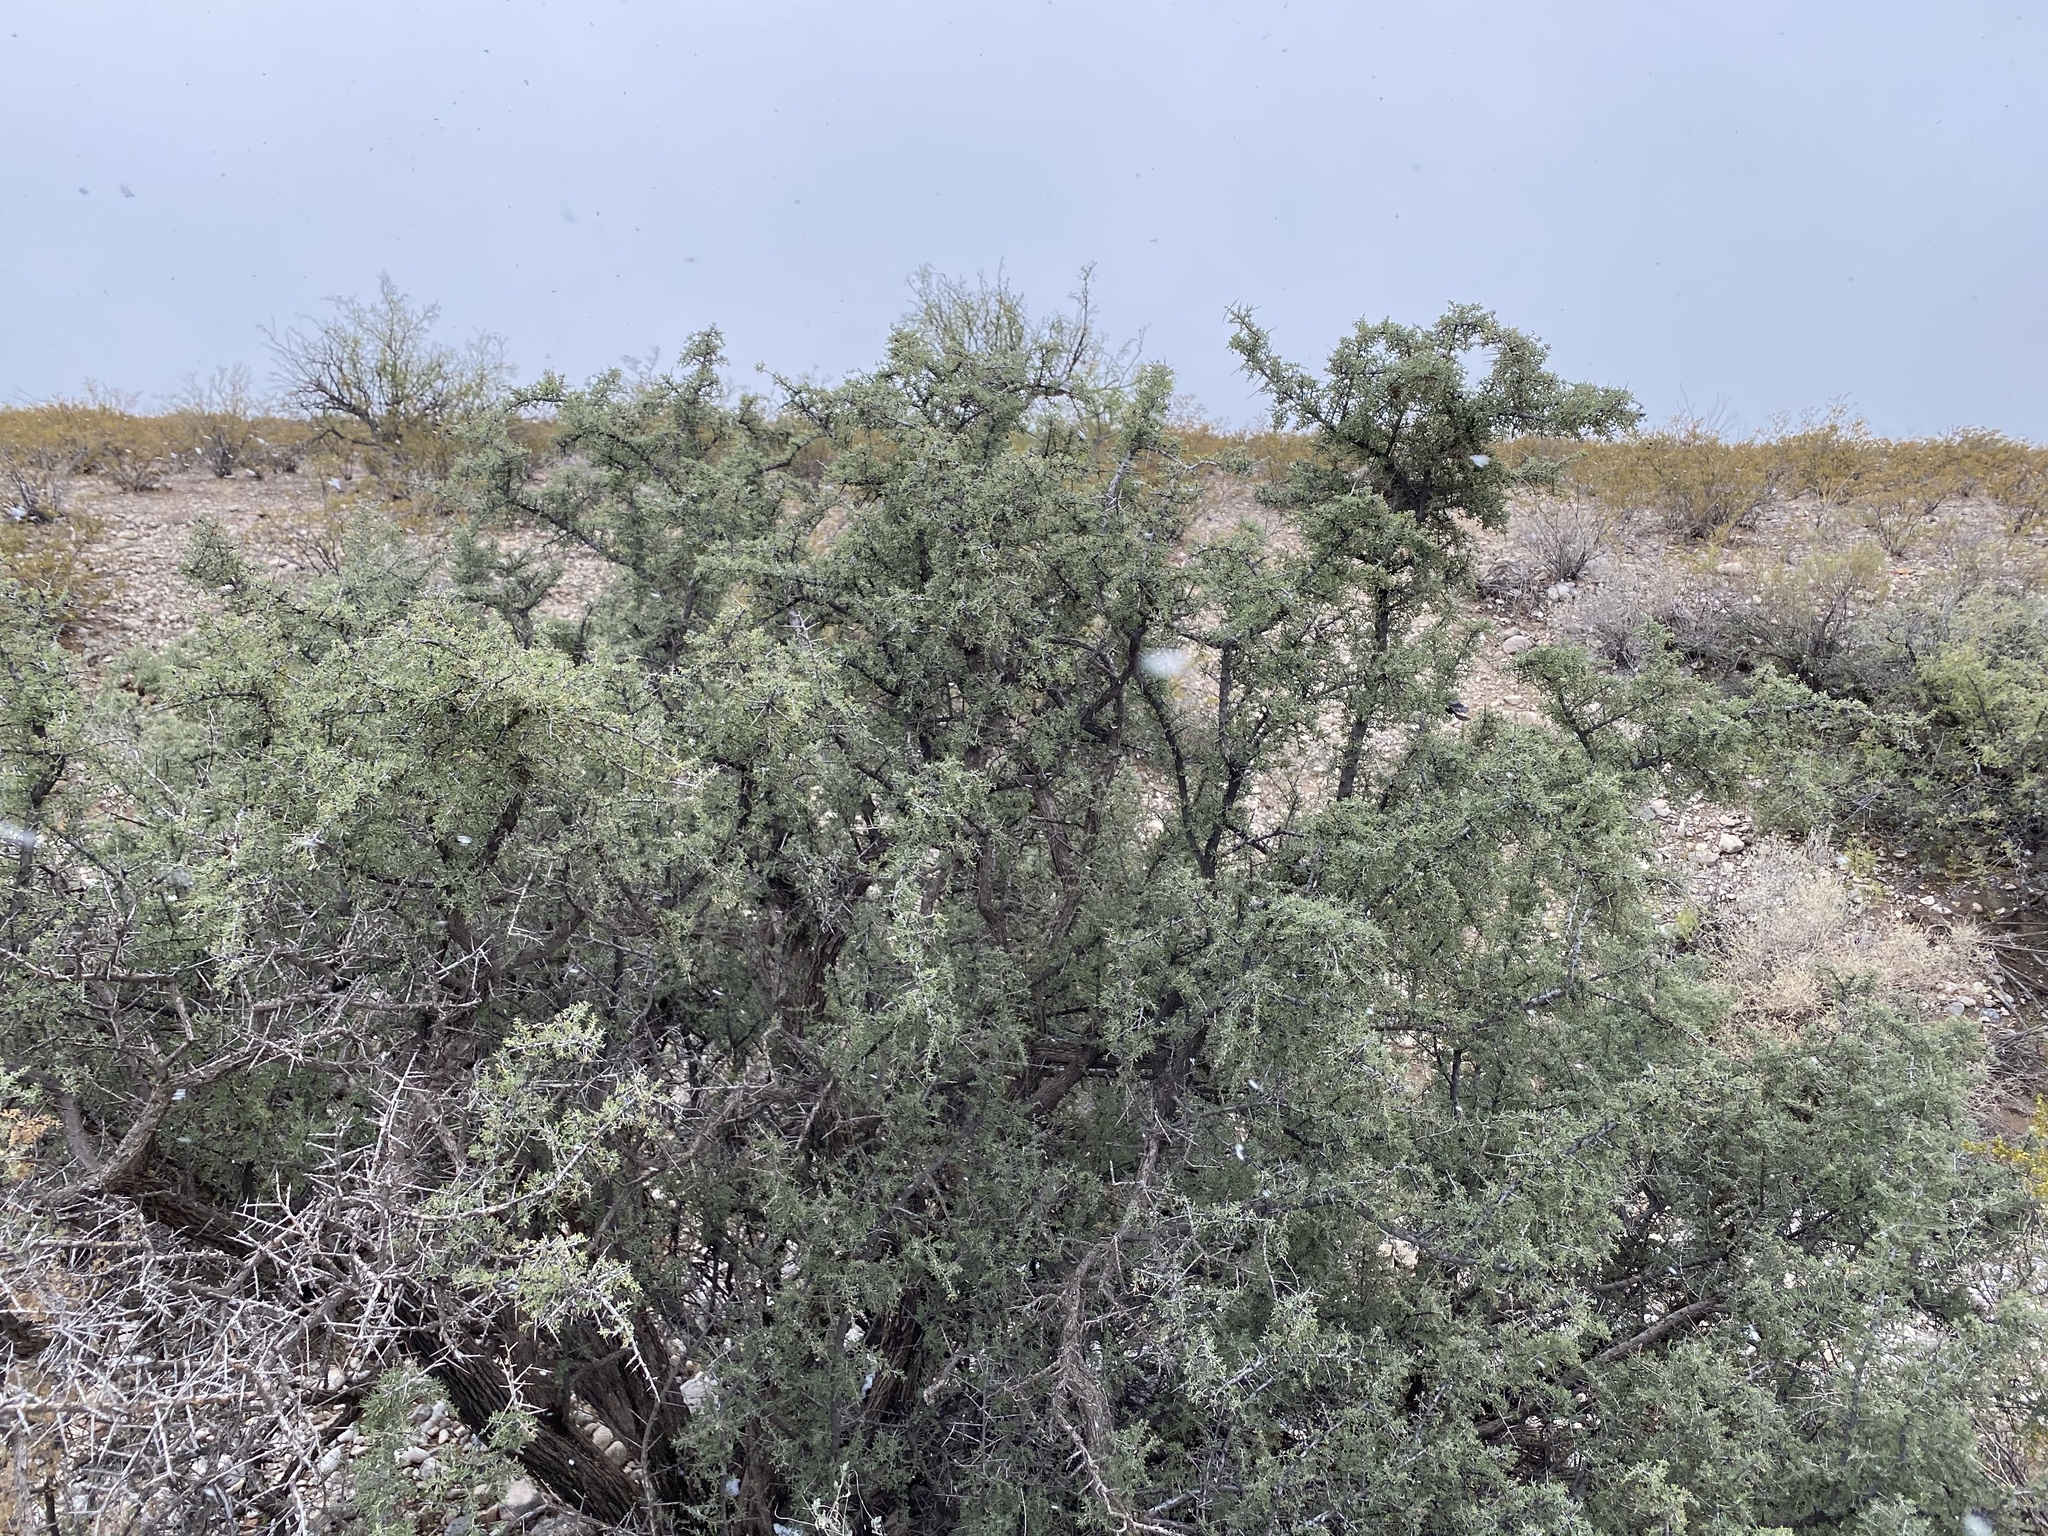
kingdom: Plantae
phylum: Tracheophyta
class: Magnoliopsida
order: Rosales
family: Rhamnaceae
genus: Condalia
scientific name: Condalia warnockii
